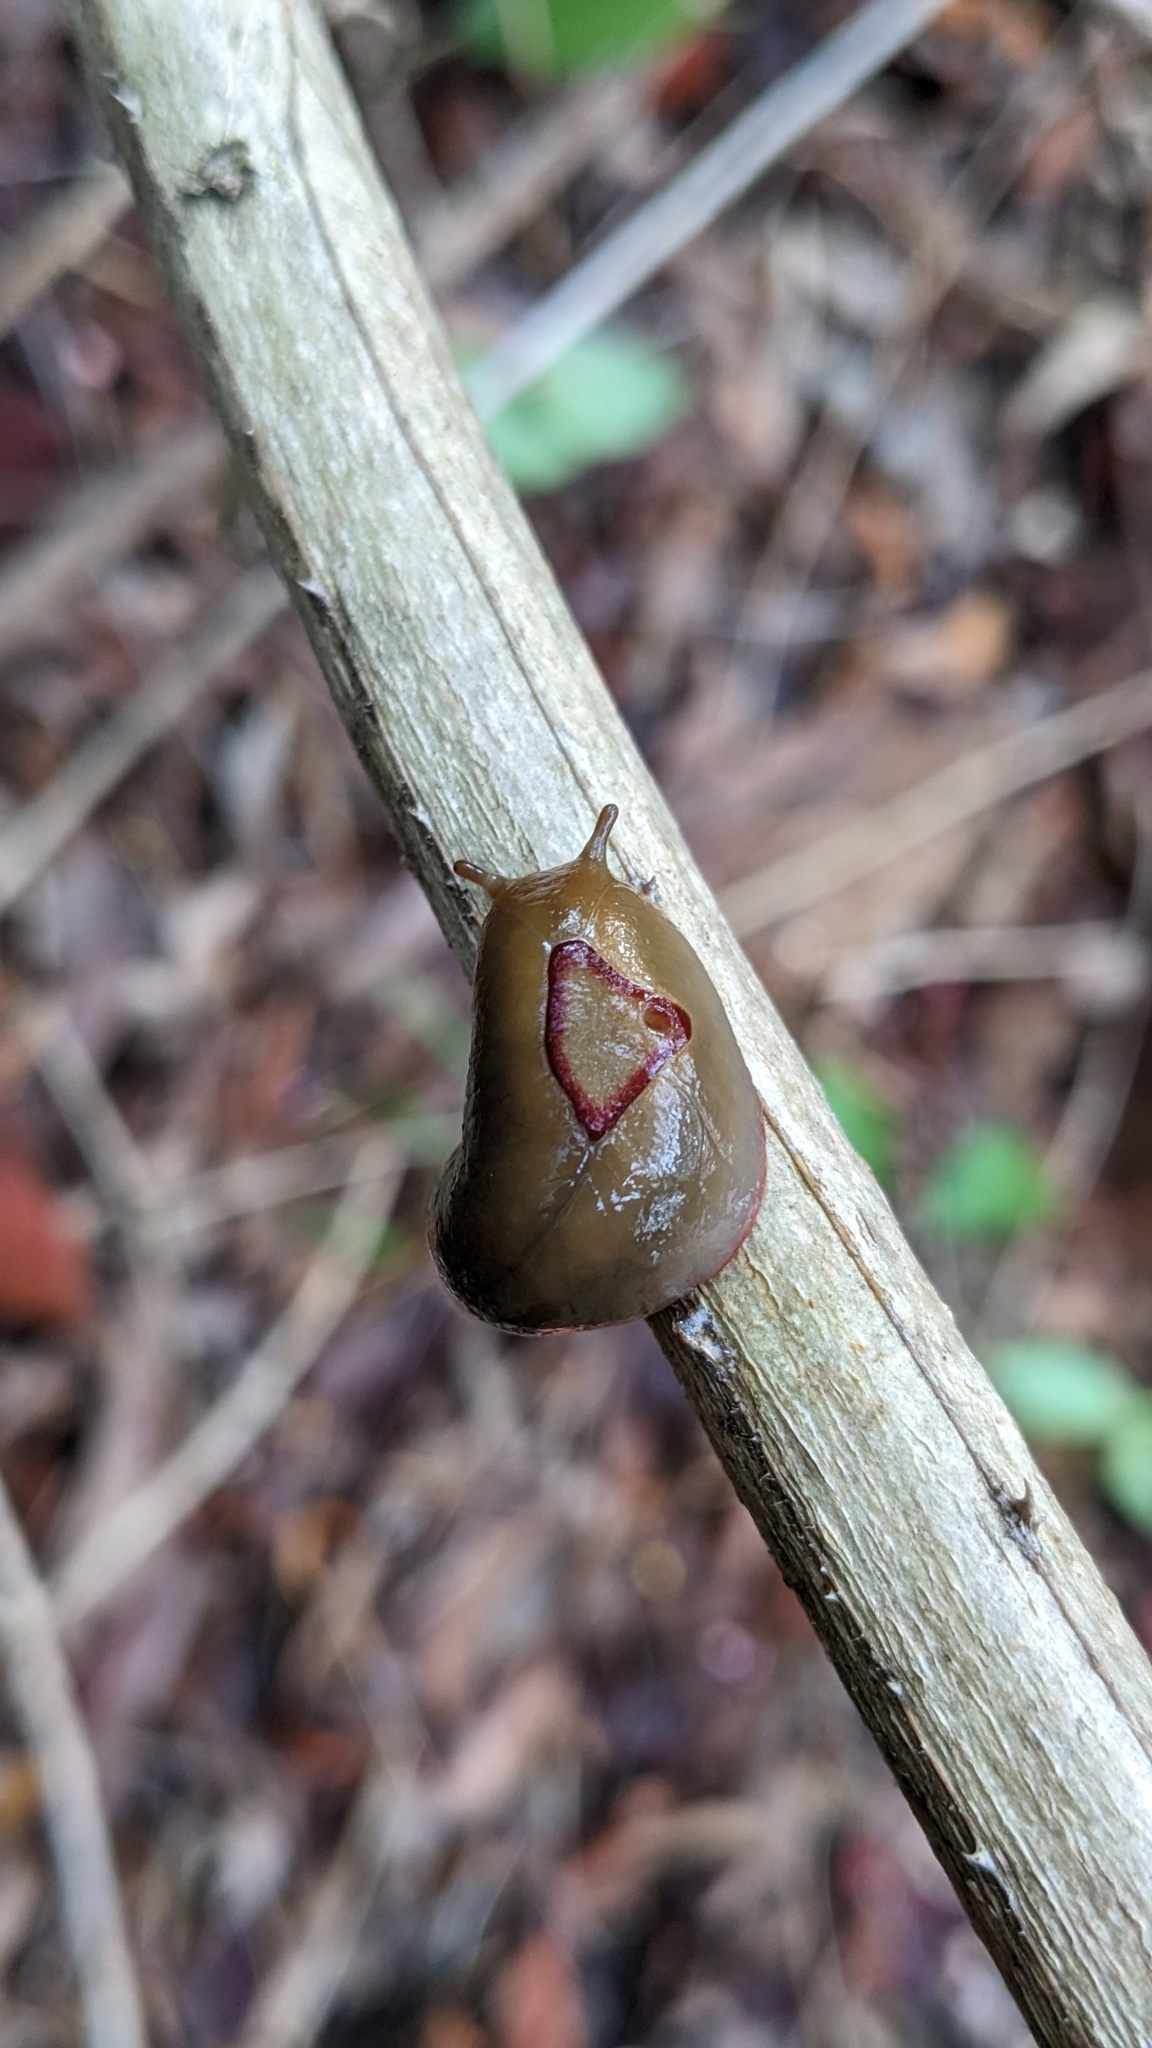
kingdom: Animalia
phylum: Mollusca
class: Gastropoda
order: Stylommatophora
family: Athoracophoridae
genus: Triboniophorus
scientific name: Triboniophorus graeffei
